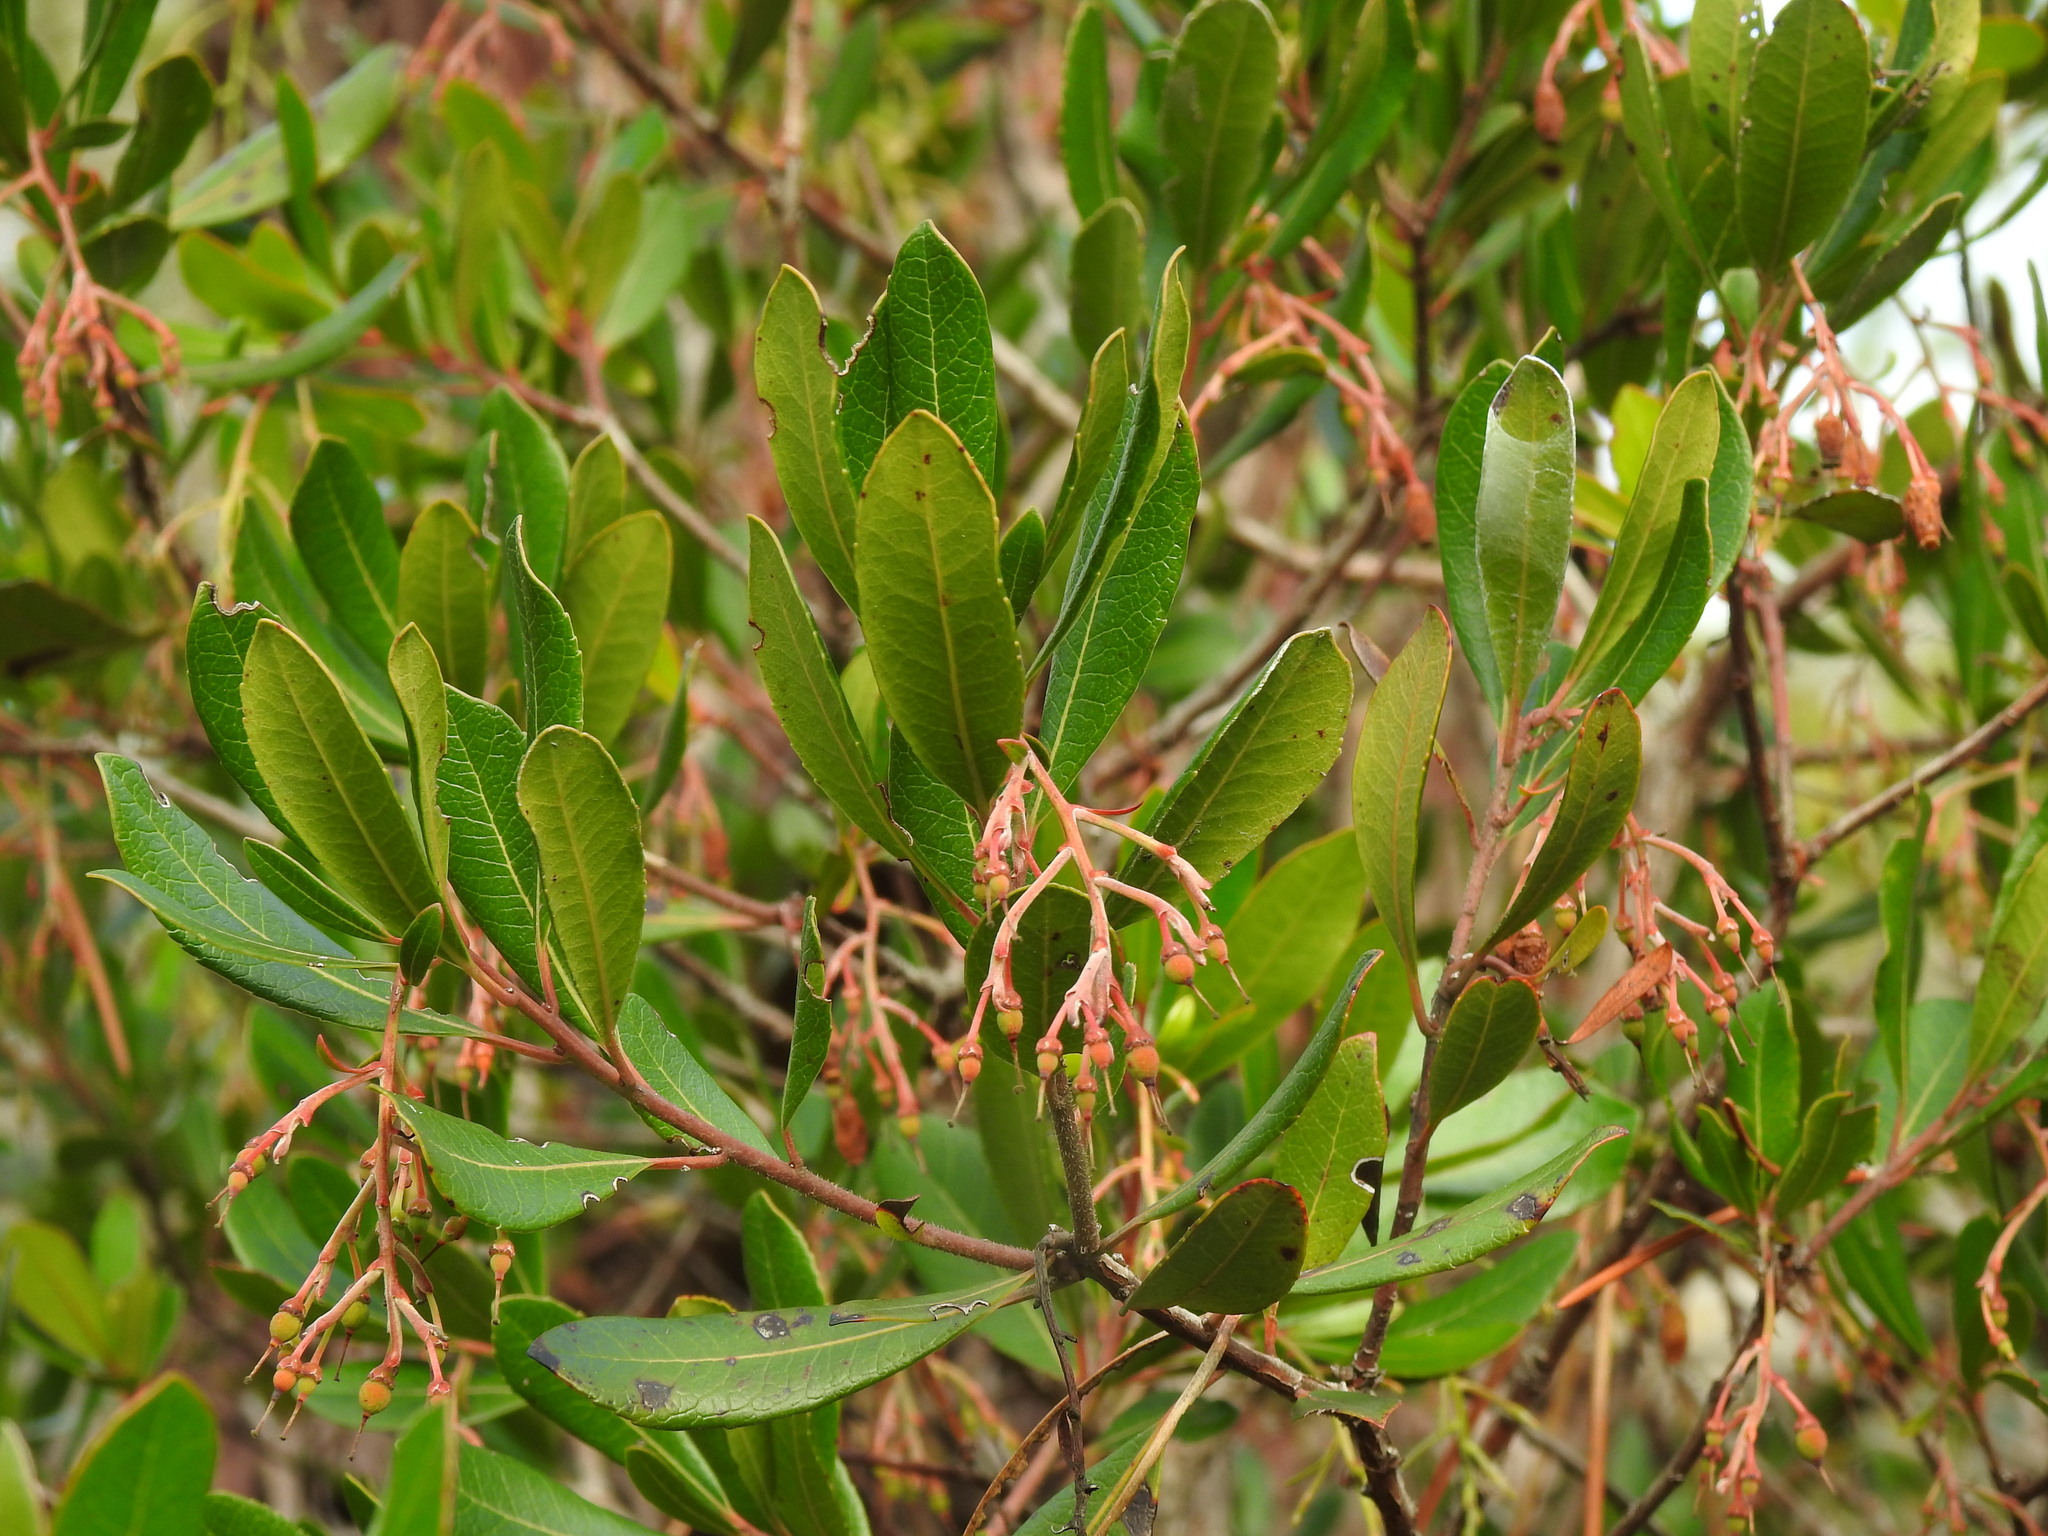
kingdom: Plantae
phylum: Tracheophyta
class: Magnoliopsida
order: Ericales
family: Ericaceae
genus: Arbutus
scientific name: Arbutus unedo
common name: Strawberry-tree
